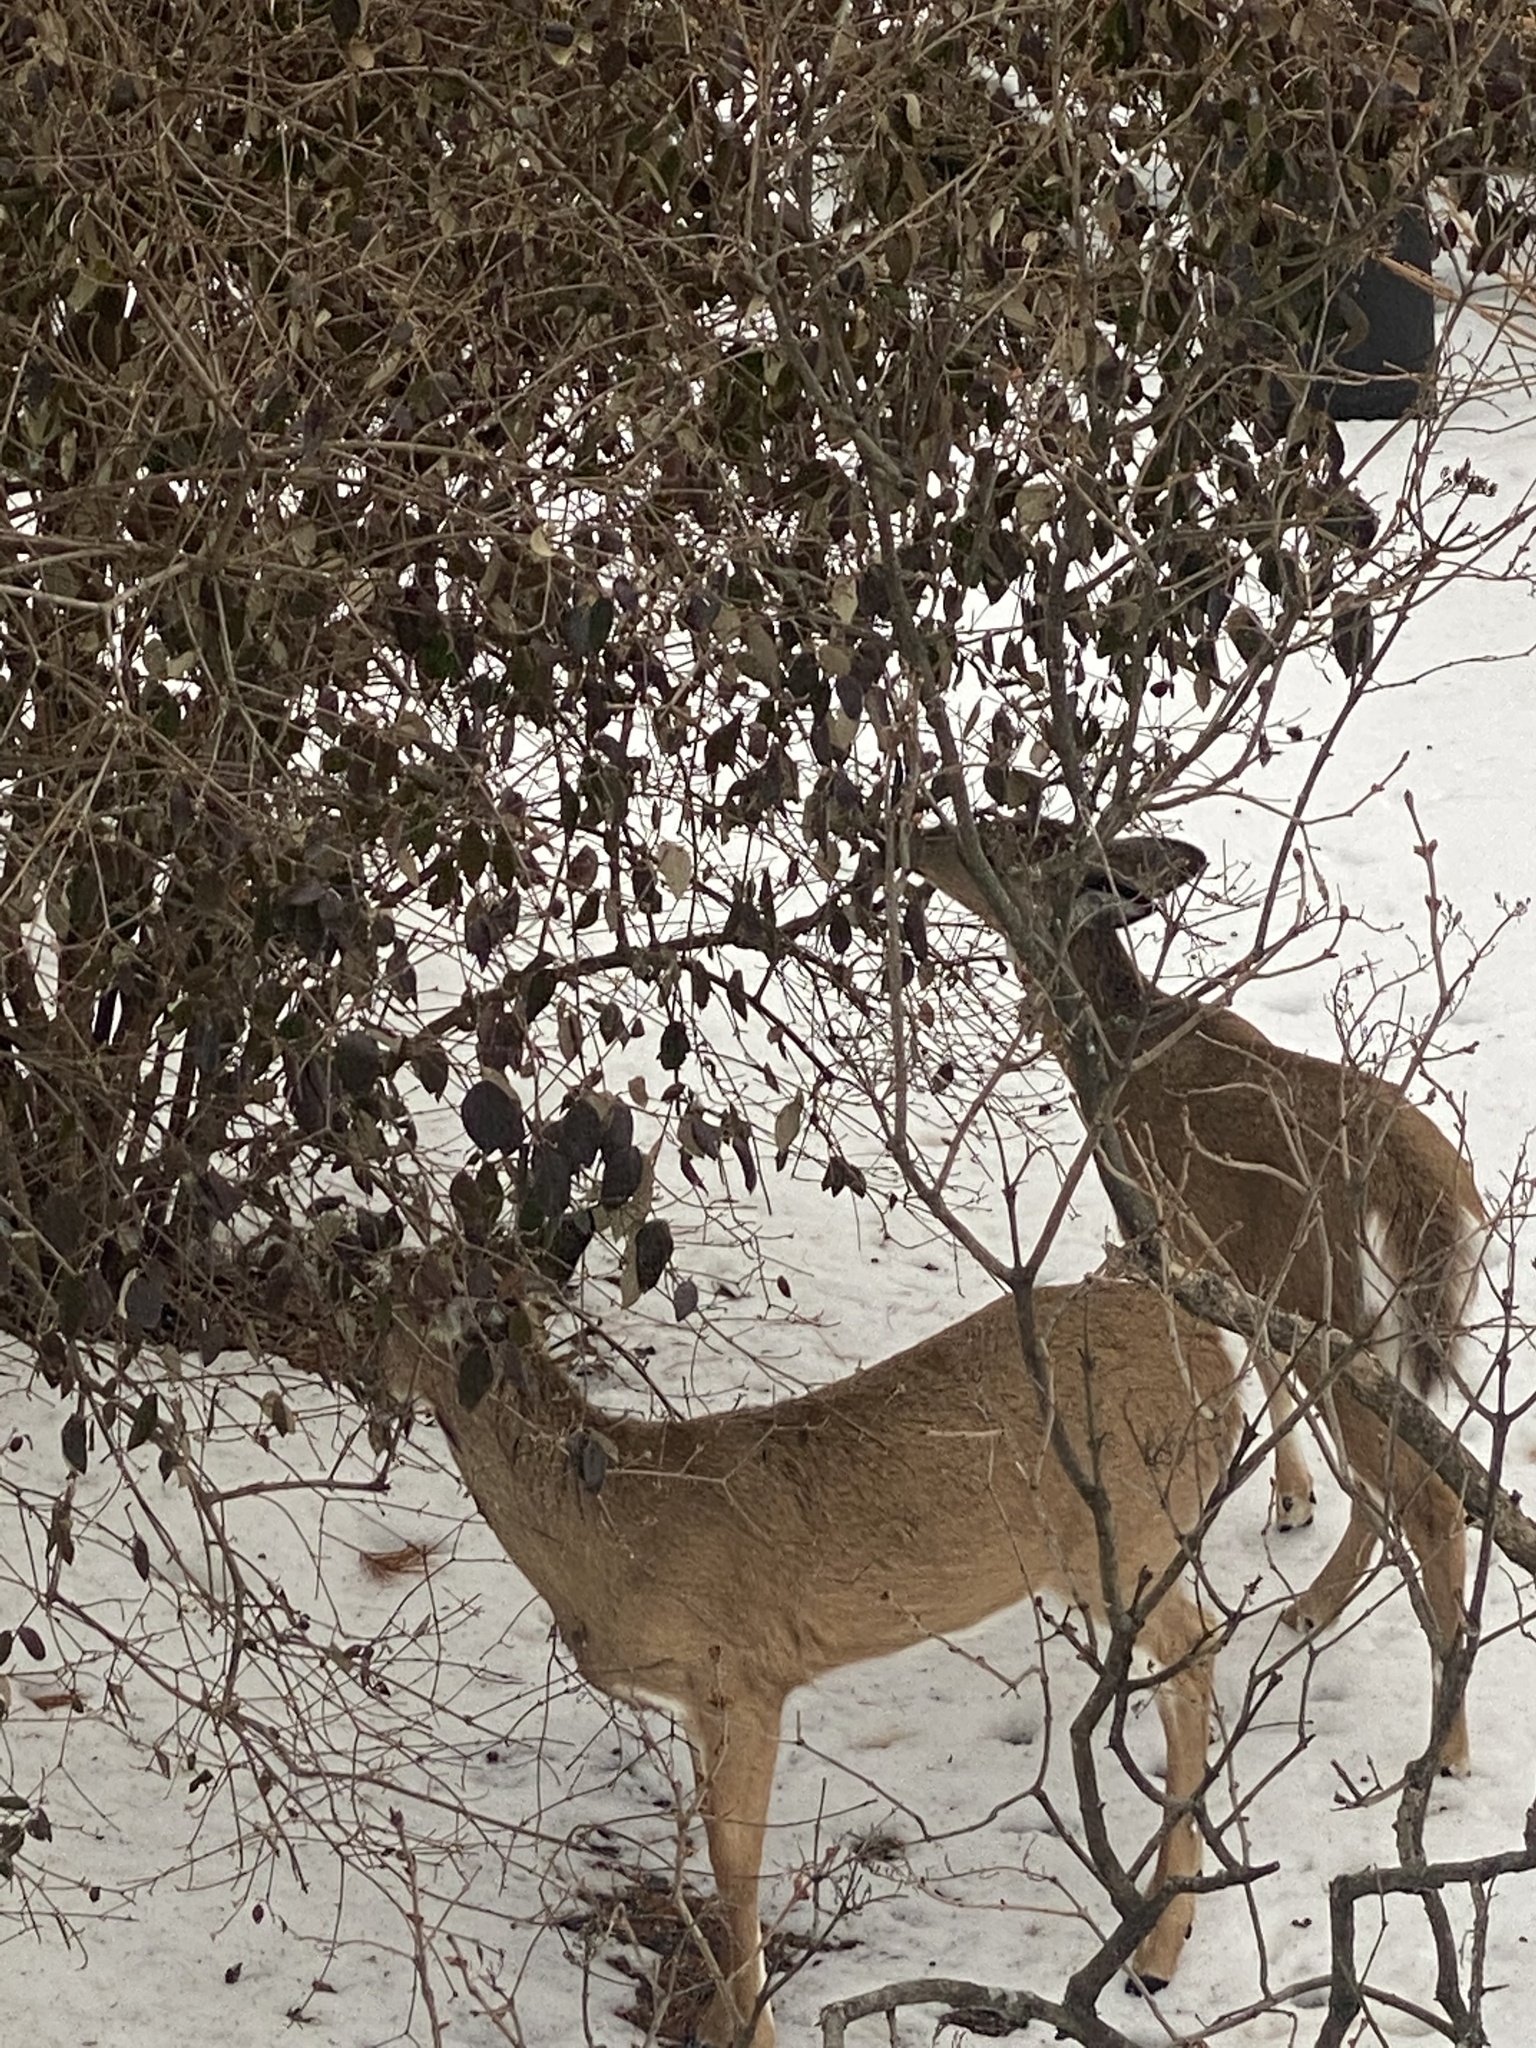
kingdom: Animalia
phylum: Chordata
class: Mammalia
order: Artiodactyla
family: Cervidae
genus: Odocoileus
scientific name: Odocoileus virginianus
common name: White-tailed deer
